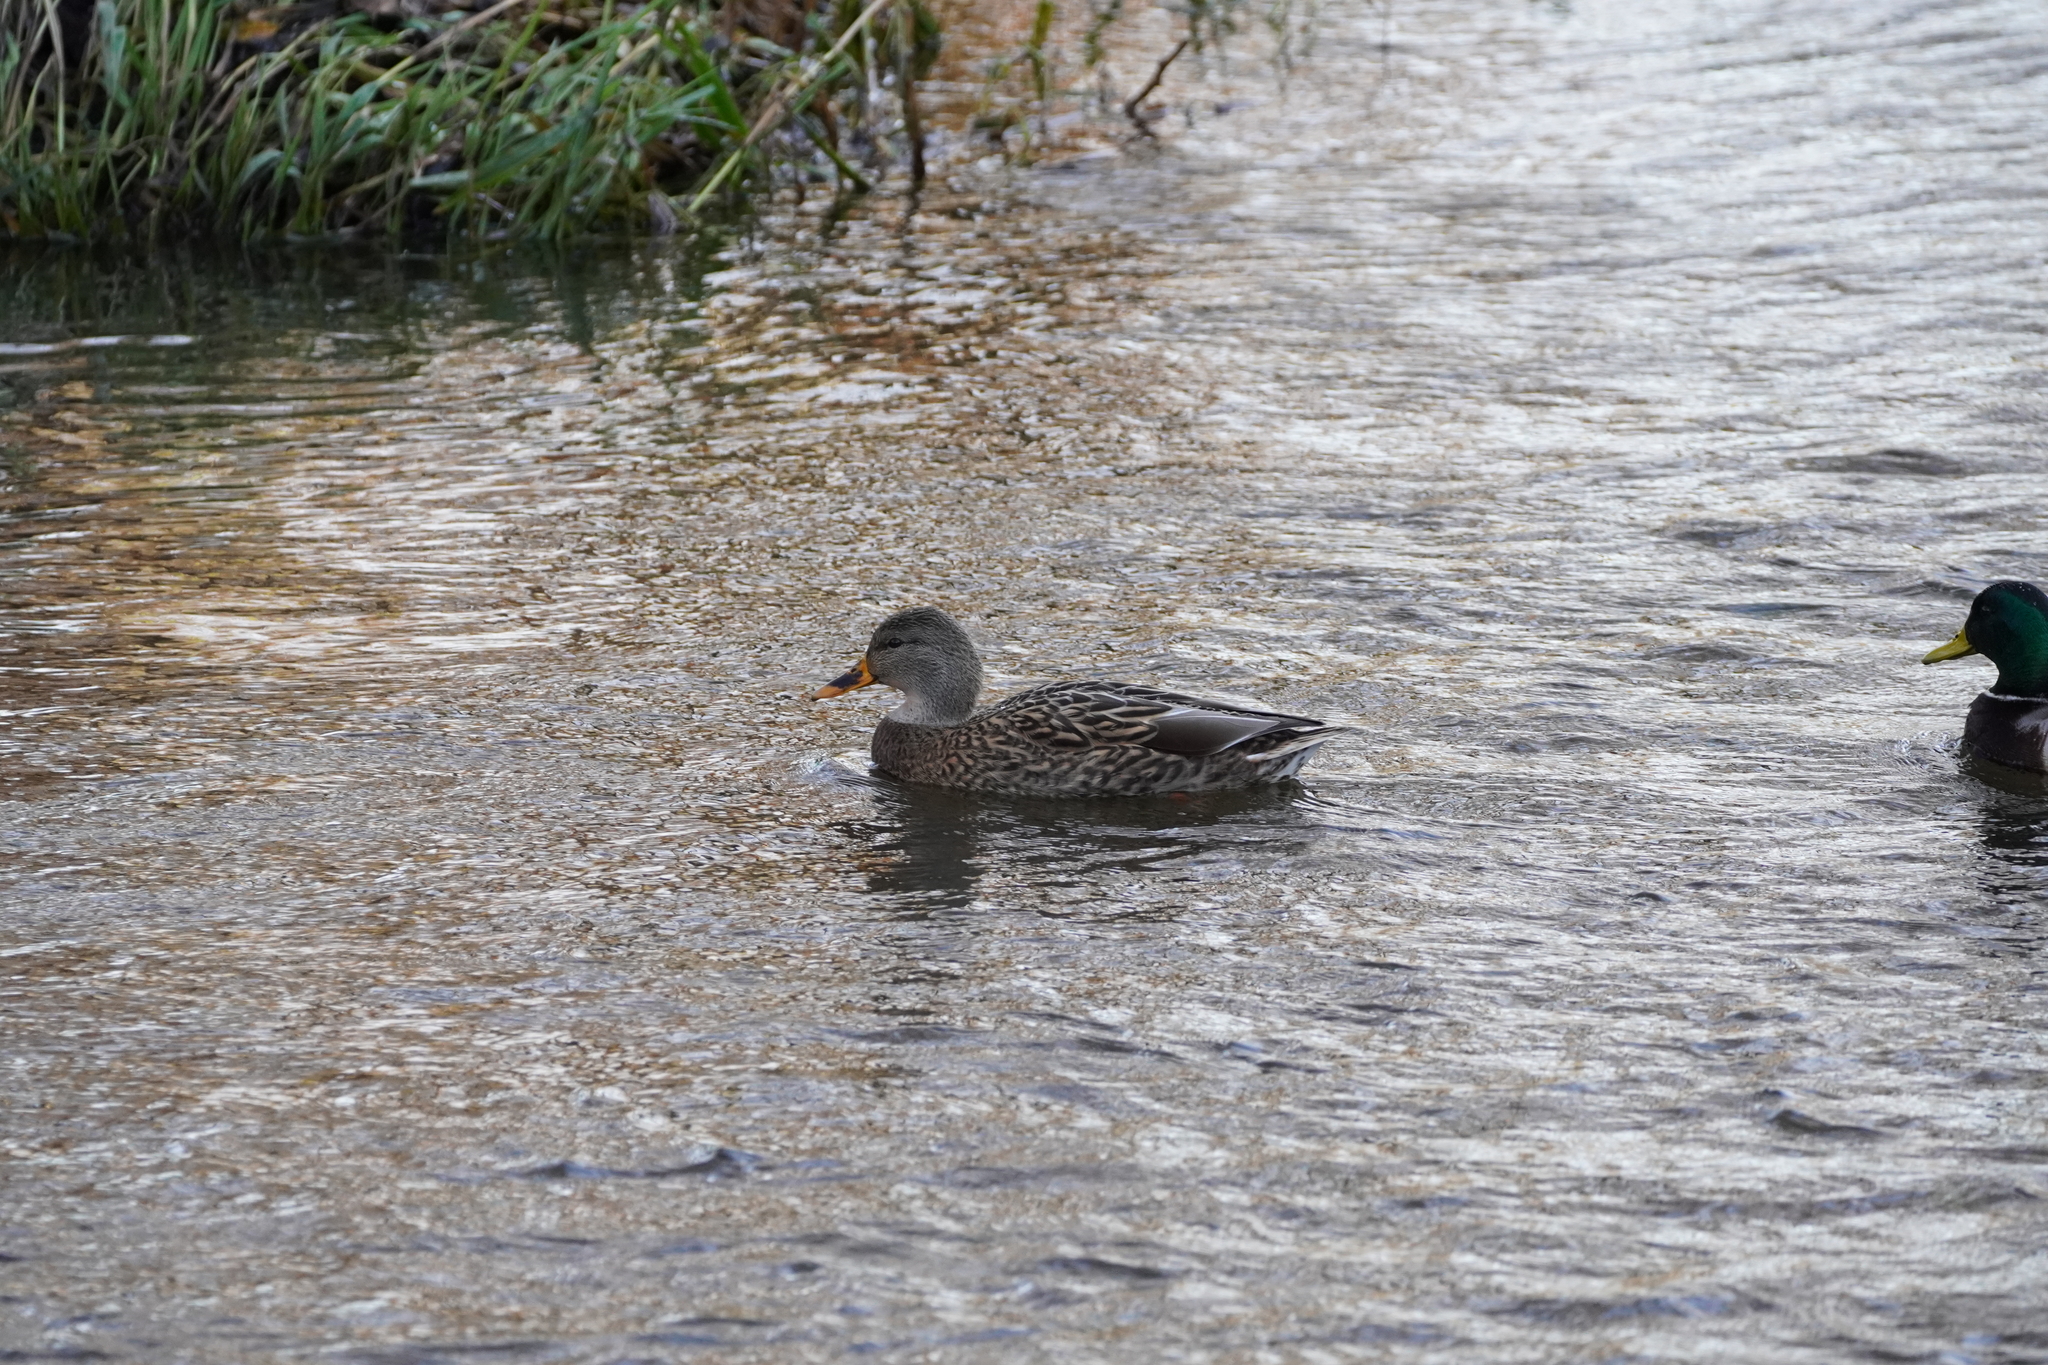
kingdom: Animalia
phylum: Chordata
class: Aves
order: Anseriformes
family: Anatidae
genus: Anas
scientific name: Anas platyrhynchos
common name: Mallard
